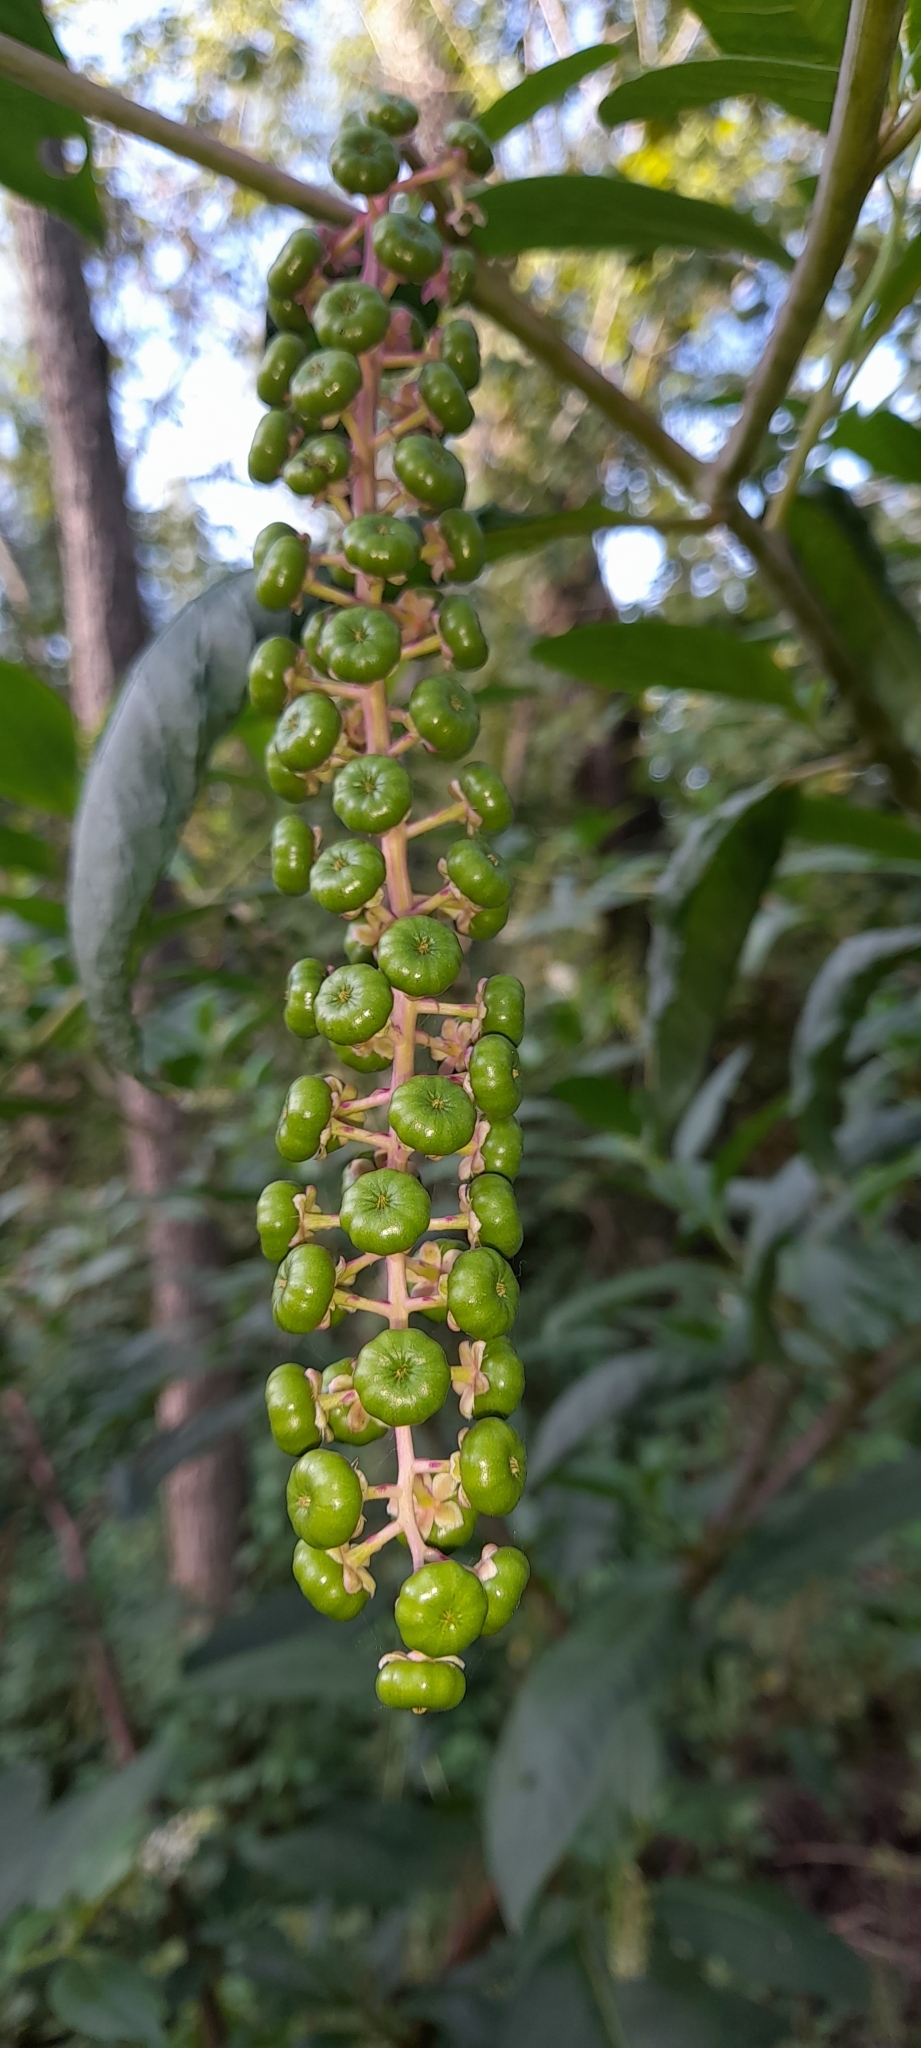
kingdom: Plantae
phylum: Tracheophyta
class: Magnoliopsida
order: Caryophyllales
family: Phytolaccaceae
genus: Phytolacca
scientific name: Phytolacca dioica
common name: Pokeweed
